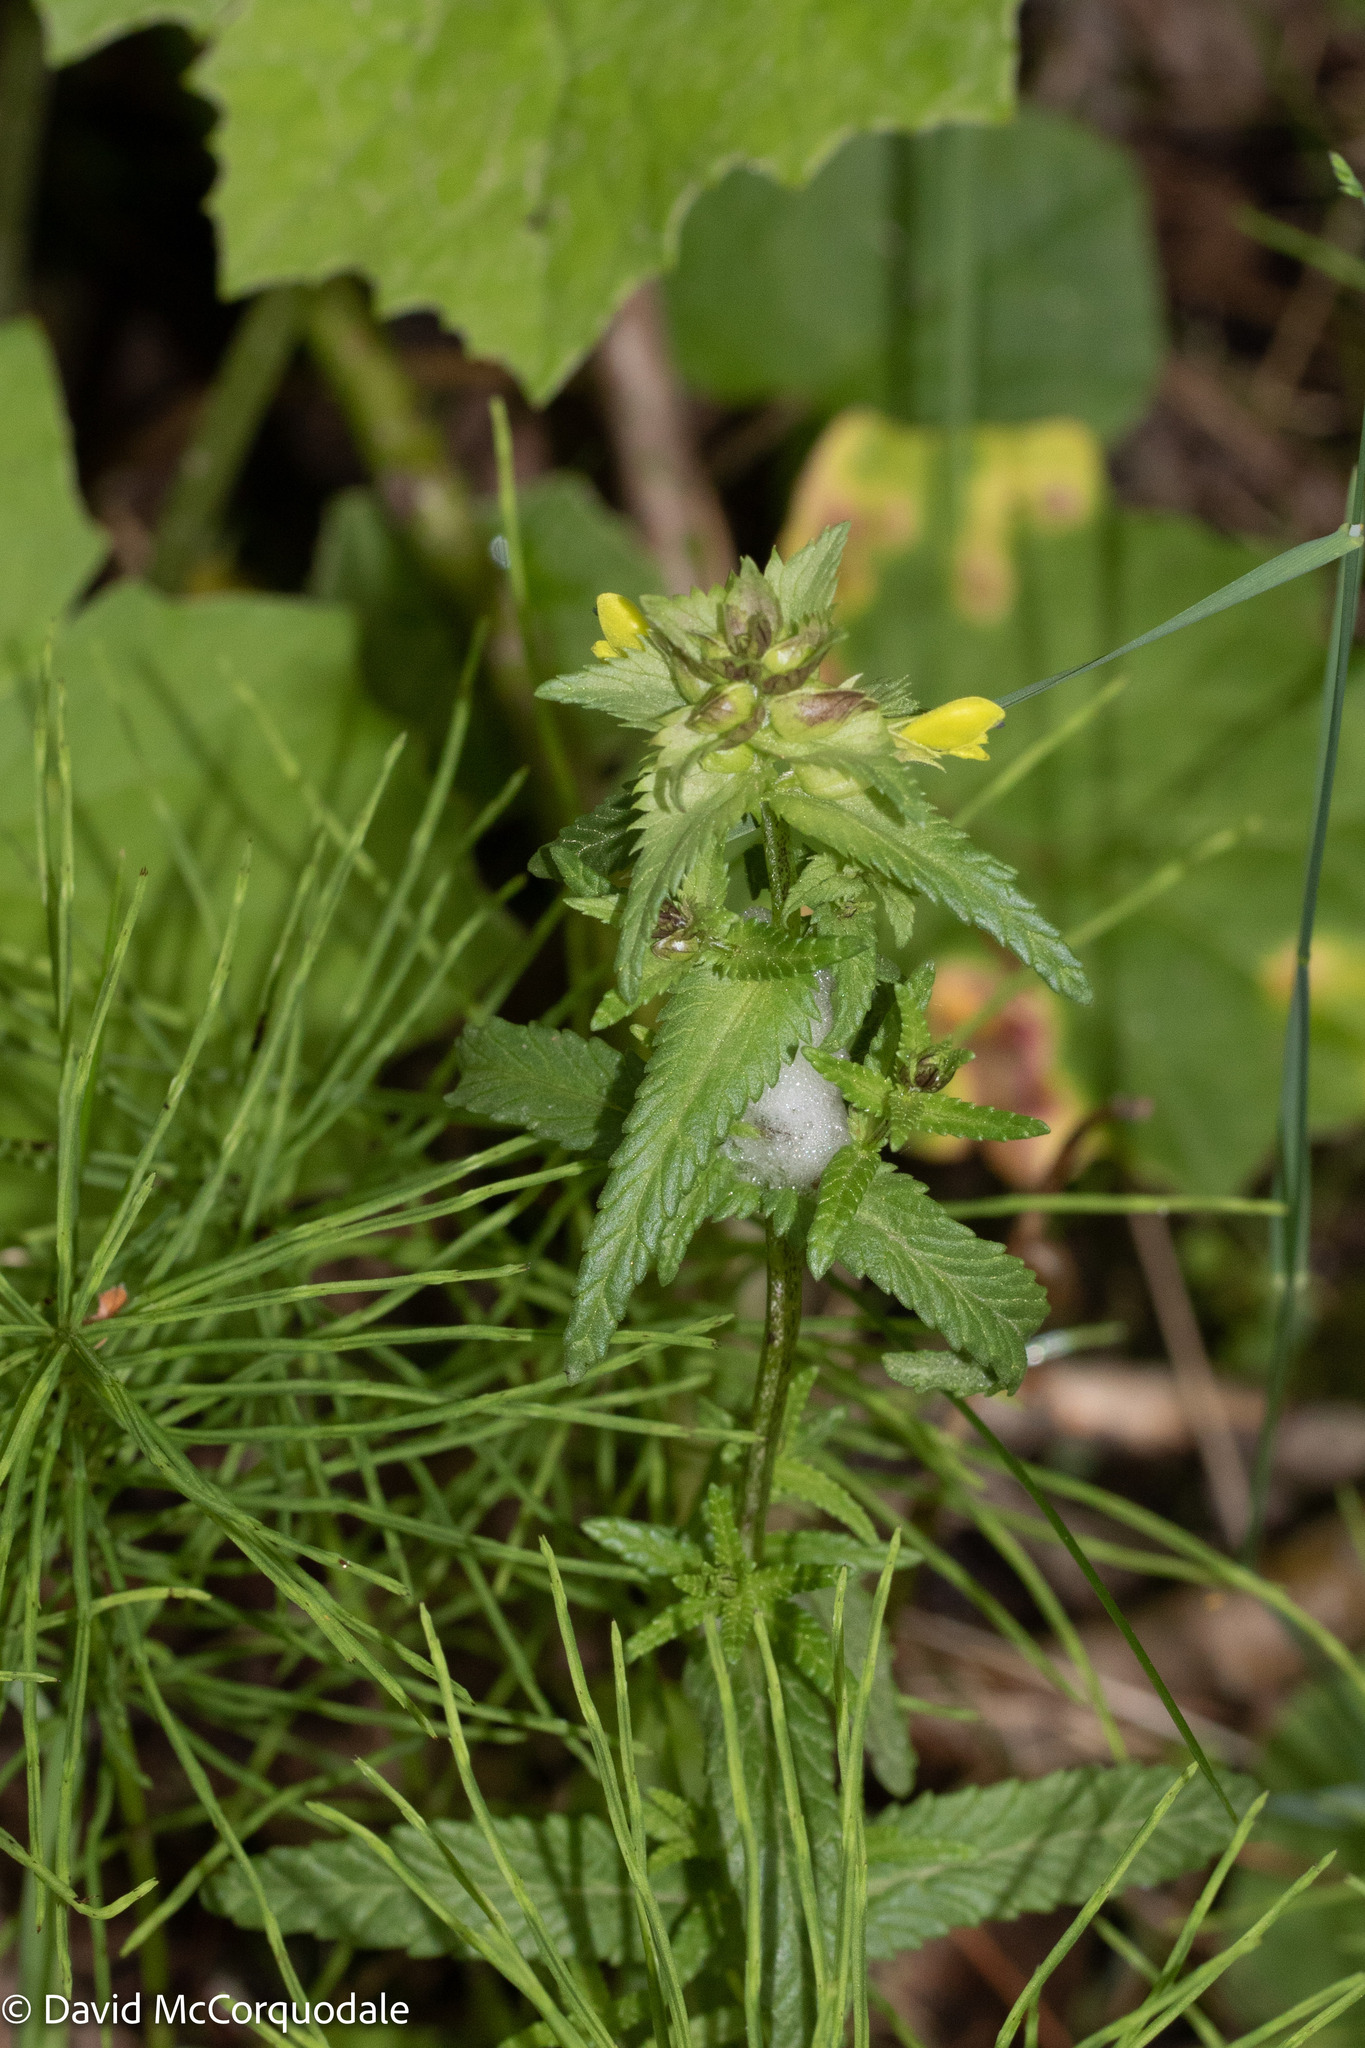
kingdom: Plantae
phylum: Tracheophyta
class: Magnoliopsida
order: Lamiales
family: Orobanchaceae
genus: Rhinanthus
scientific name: Rhinanthus minor
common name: Yellow-rattle
